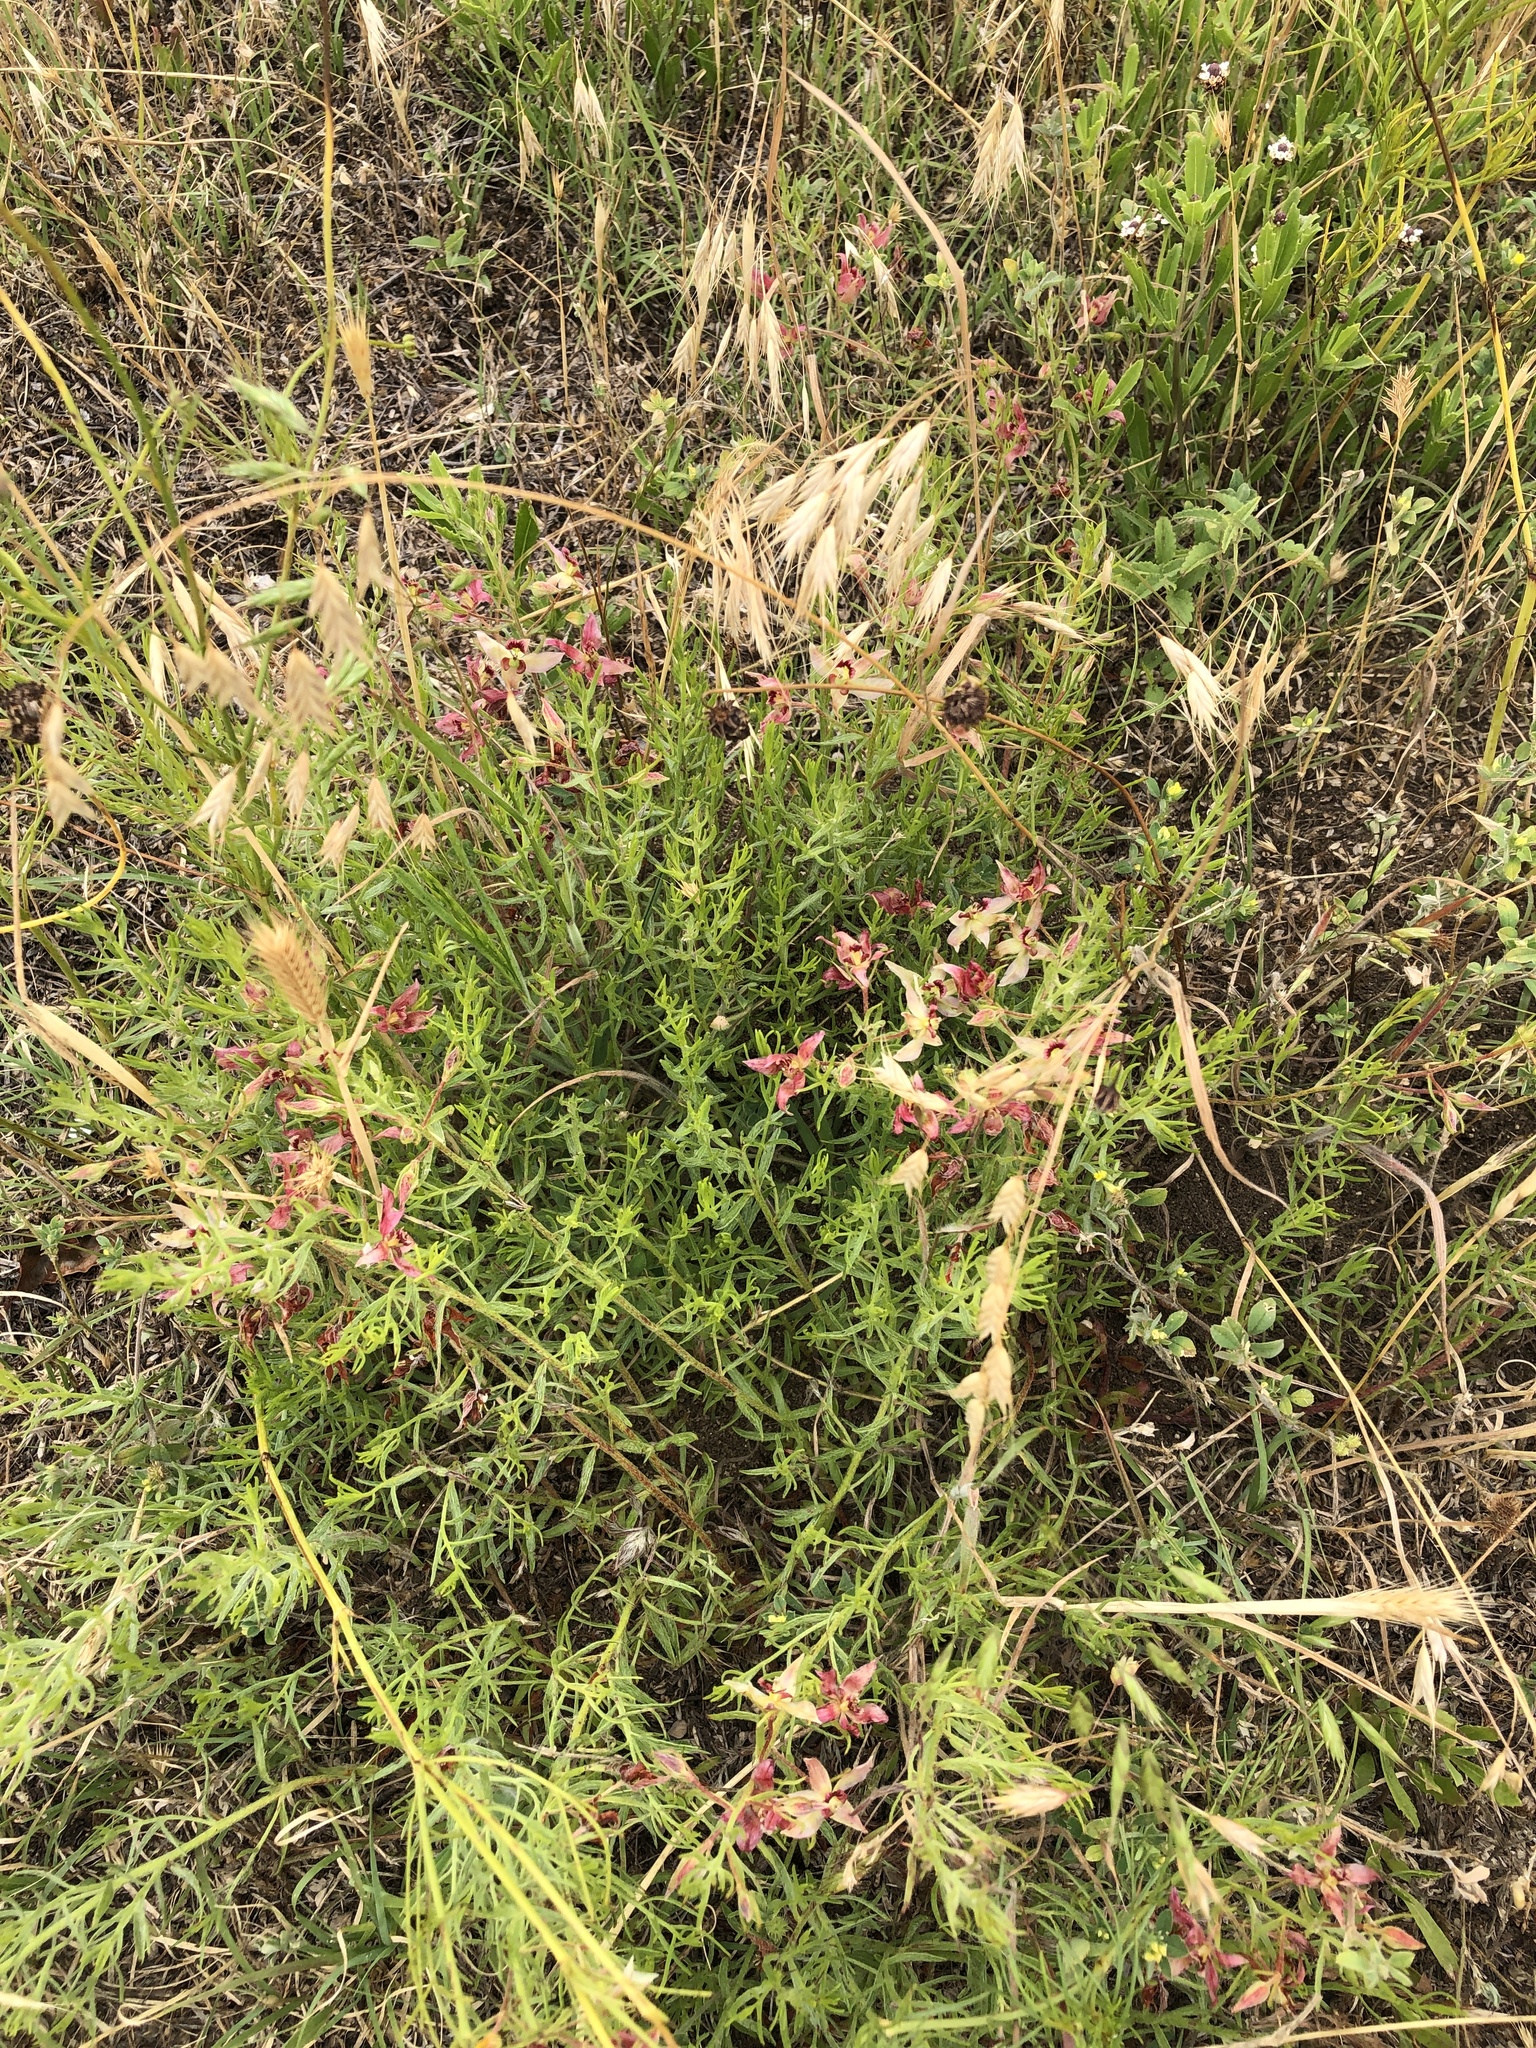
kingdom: Plantae
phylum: Tracheophyta
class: Magnoliopsida
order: Zygophyllales
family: Krameriaceae
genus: Krameria
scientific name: Krameria lanceolata
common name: Ratany
